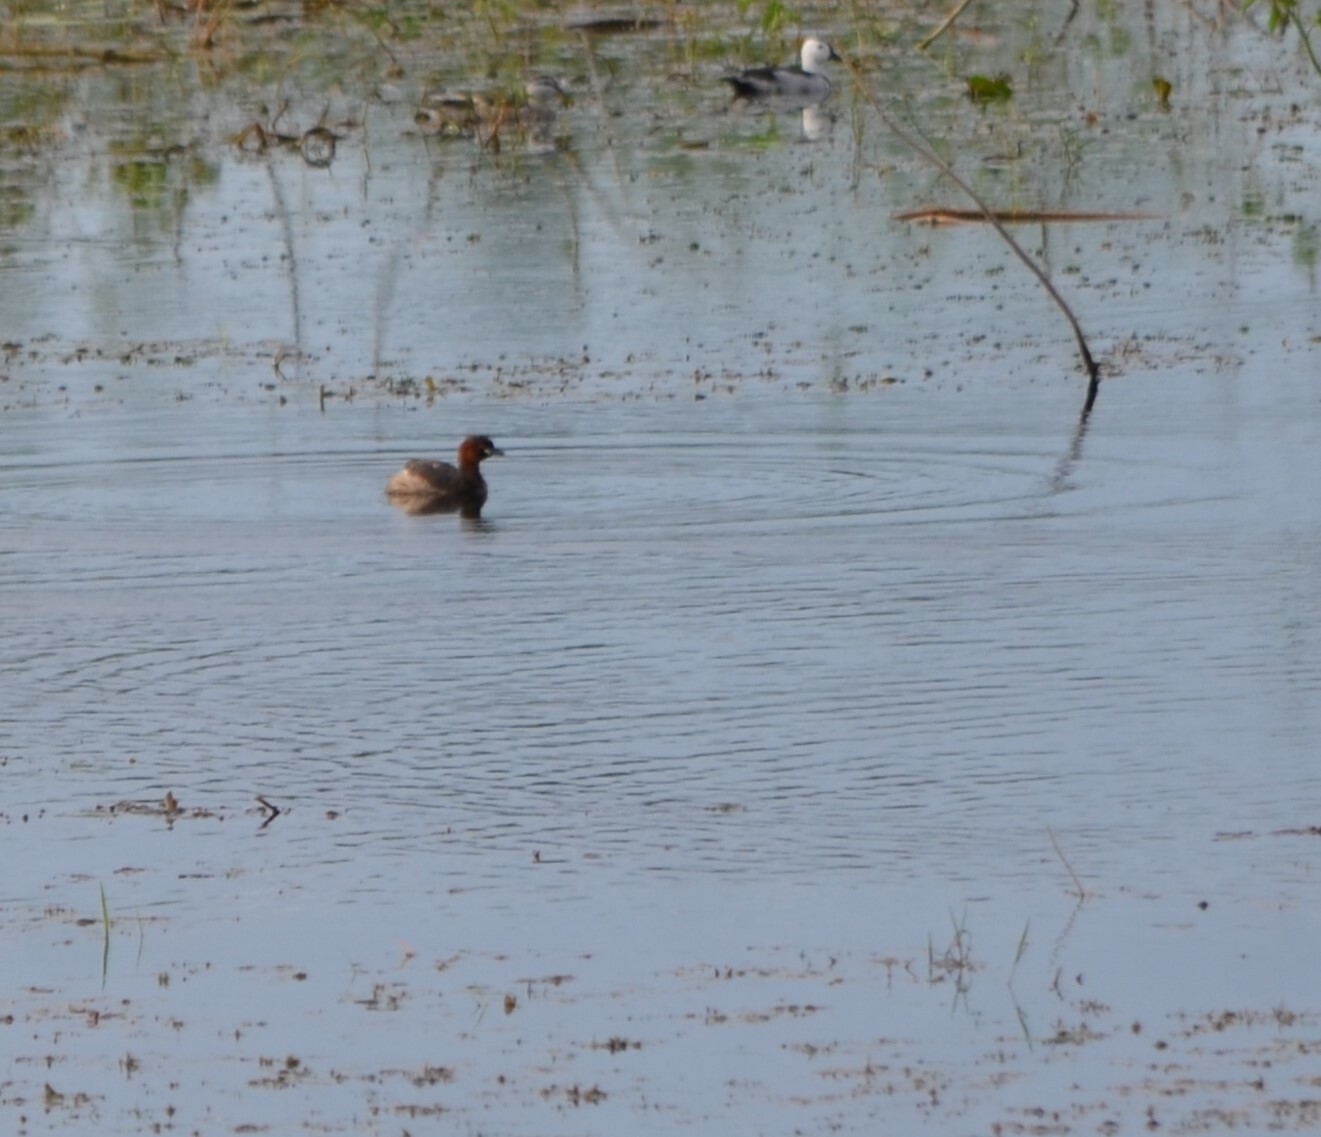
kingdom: Animalia
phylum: Chordata
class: Aves
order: Podicipediformes
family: Podicipedidae
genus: Tachybaptus
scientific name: Tachybaptus ruficollis
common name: Little grebe
